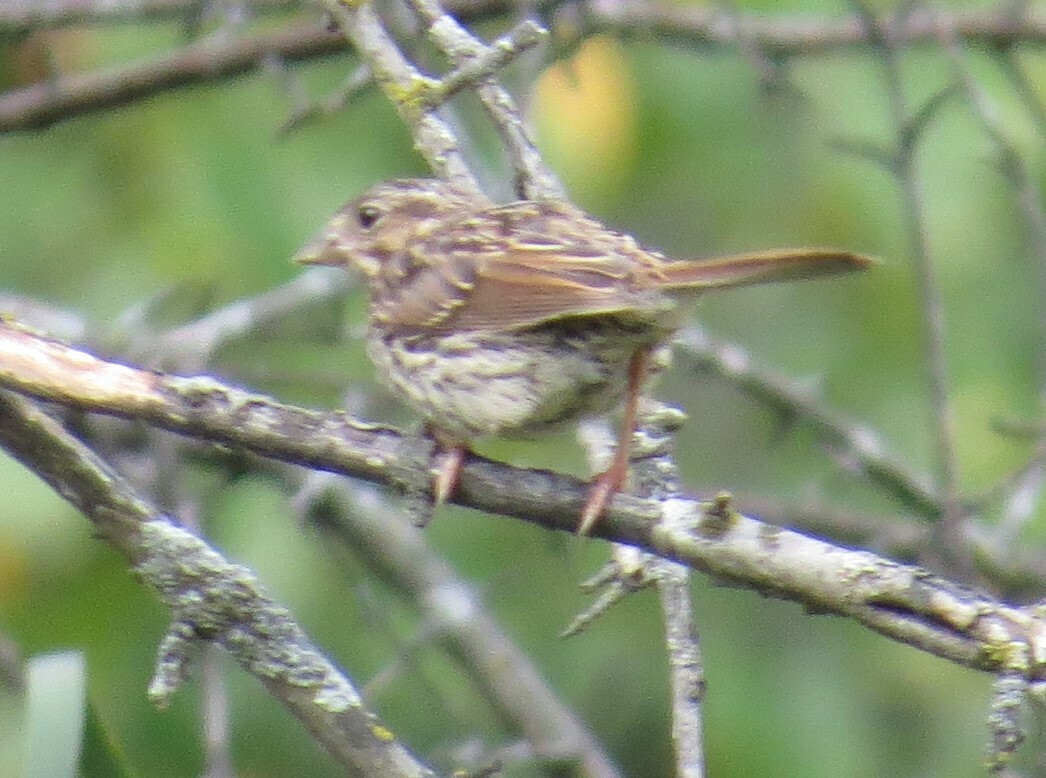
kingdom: Animalia
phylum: Chordata
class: Aves
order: Passeriformes
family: Passerellidae
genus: Melospiza
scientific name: Melospiza melodia
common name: Song sparrow
